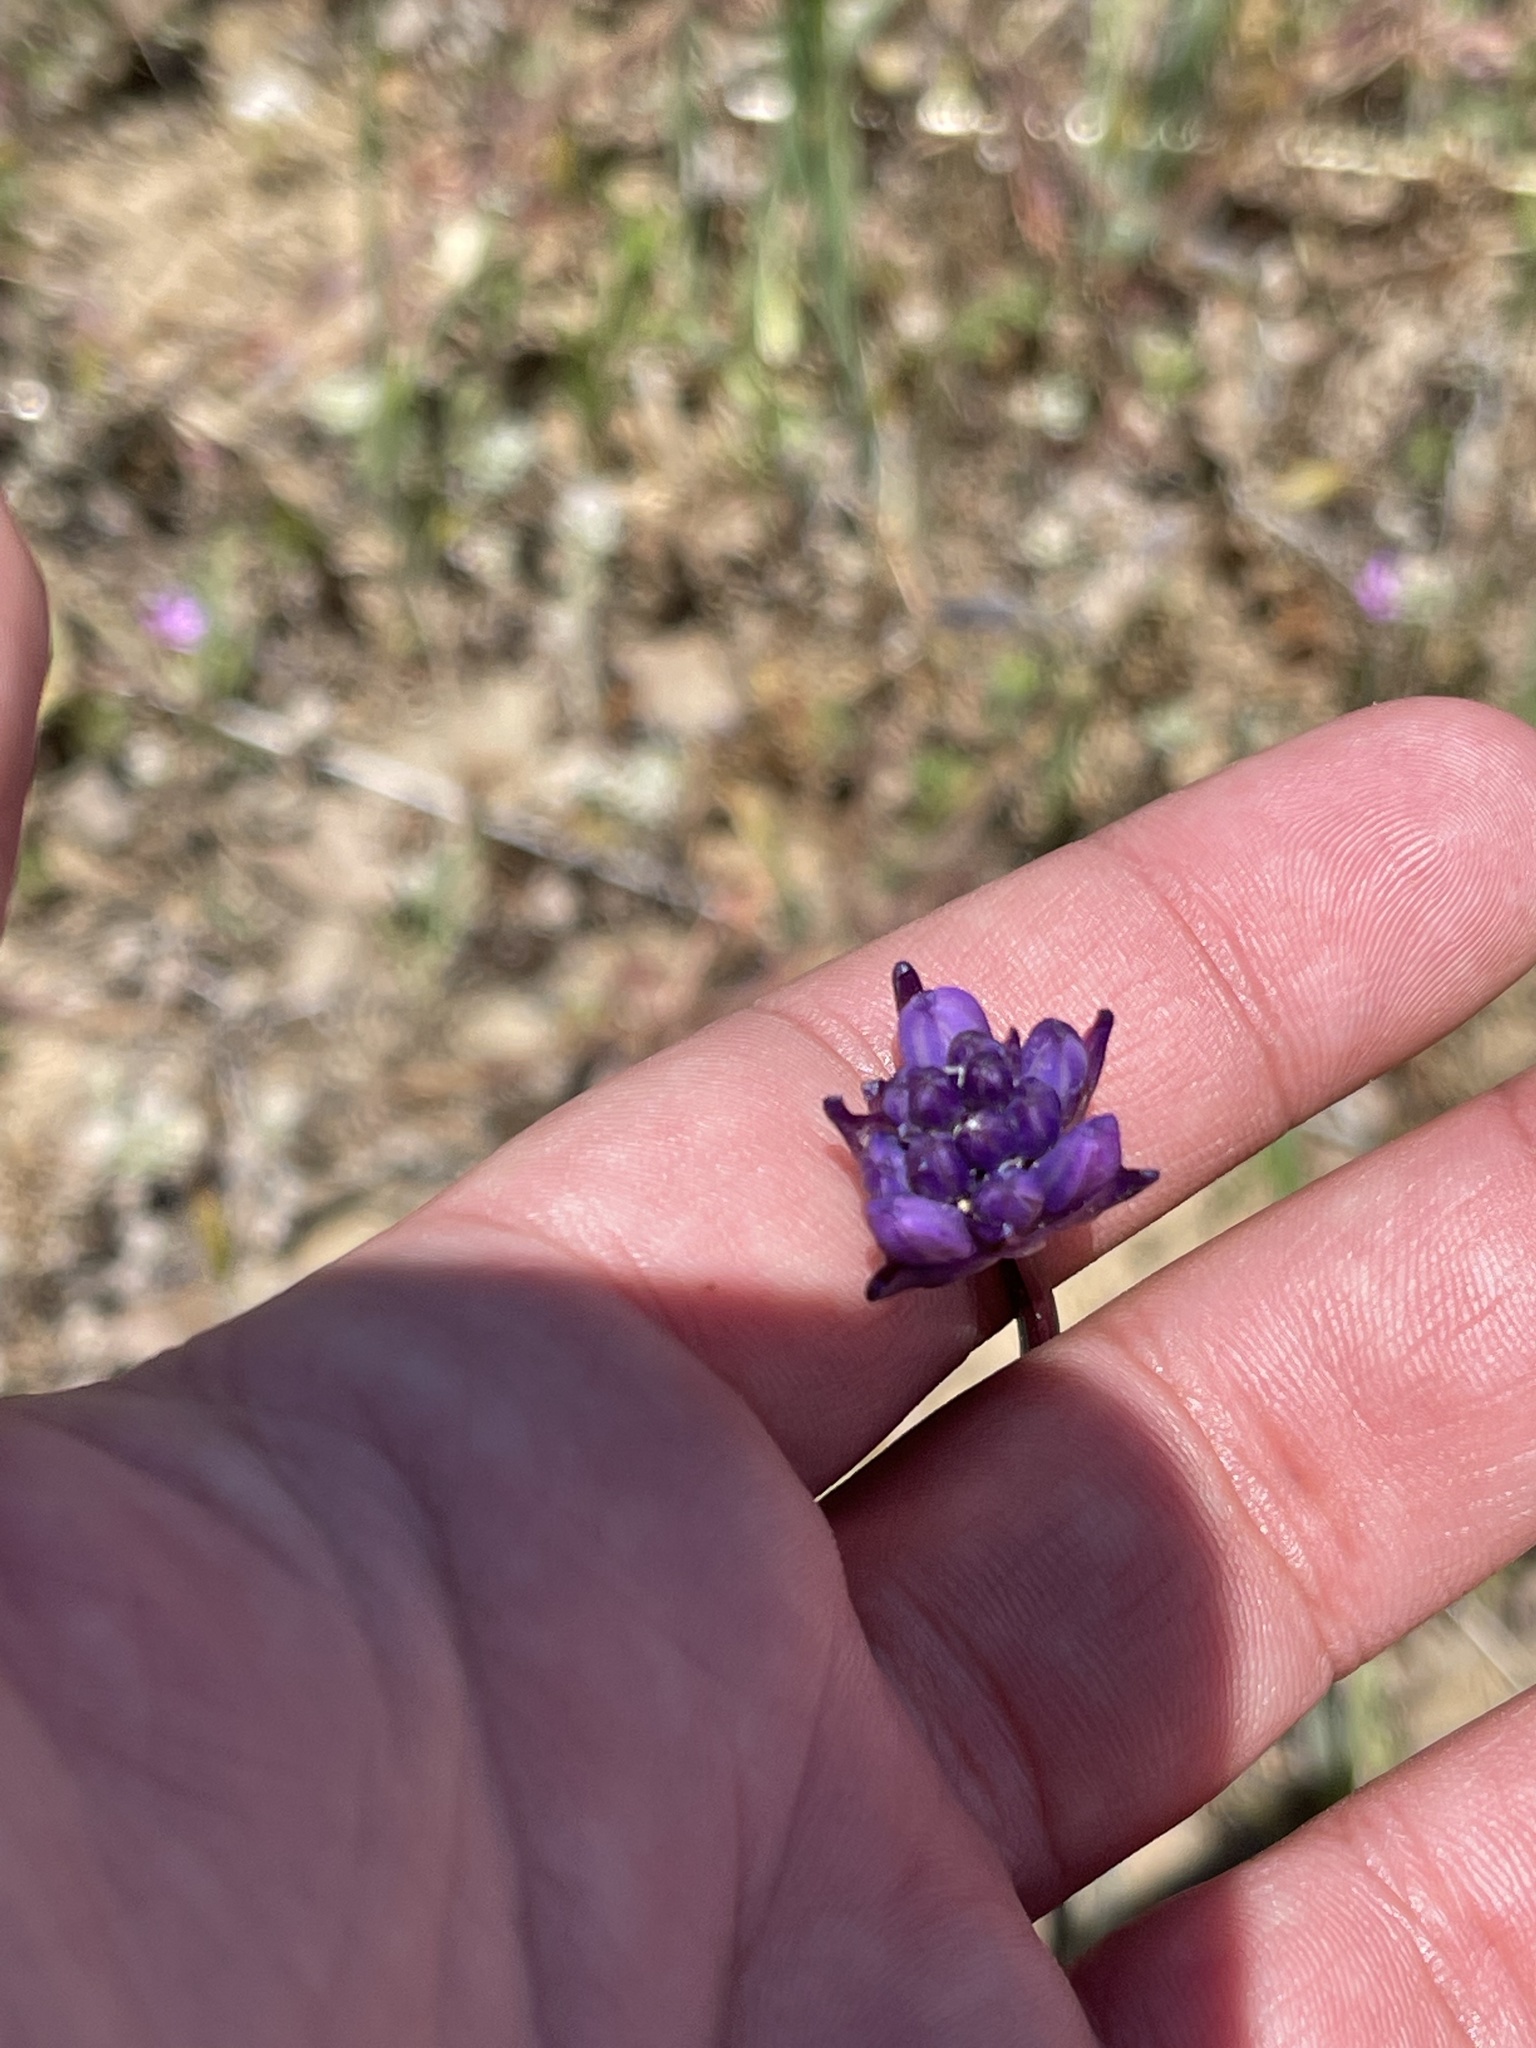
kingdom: Plantae
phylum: Tracheophyta
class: Liliopsida
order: Asparagales
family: Asparagaceae
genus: Dichelostemma
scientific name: Dichelostemma congestum
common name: Fork-tooth ookow
